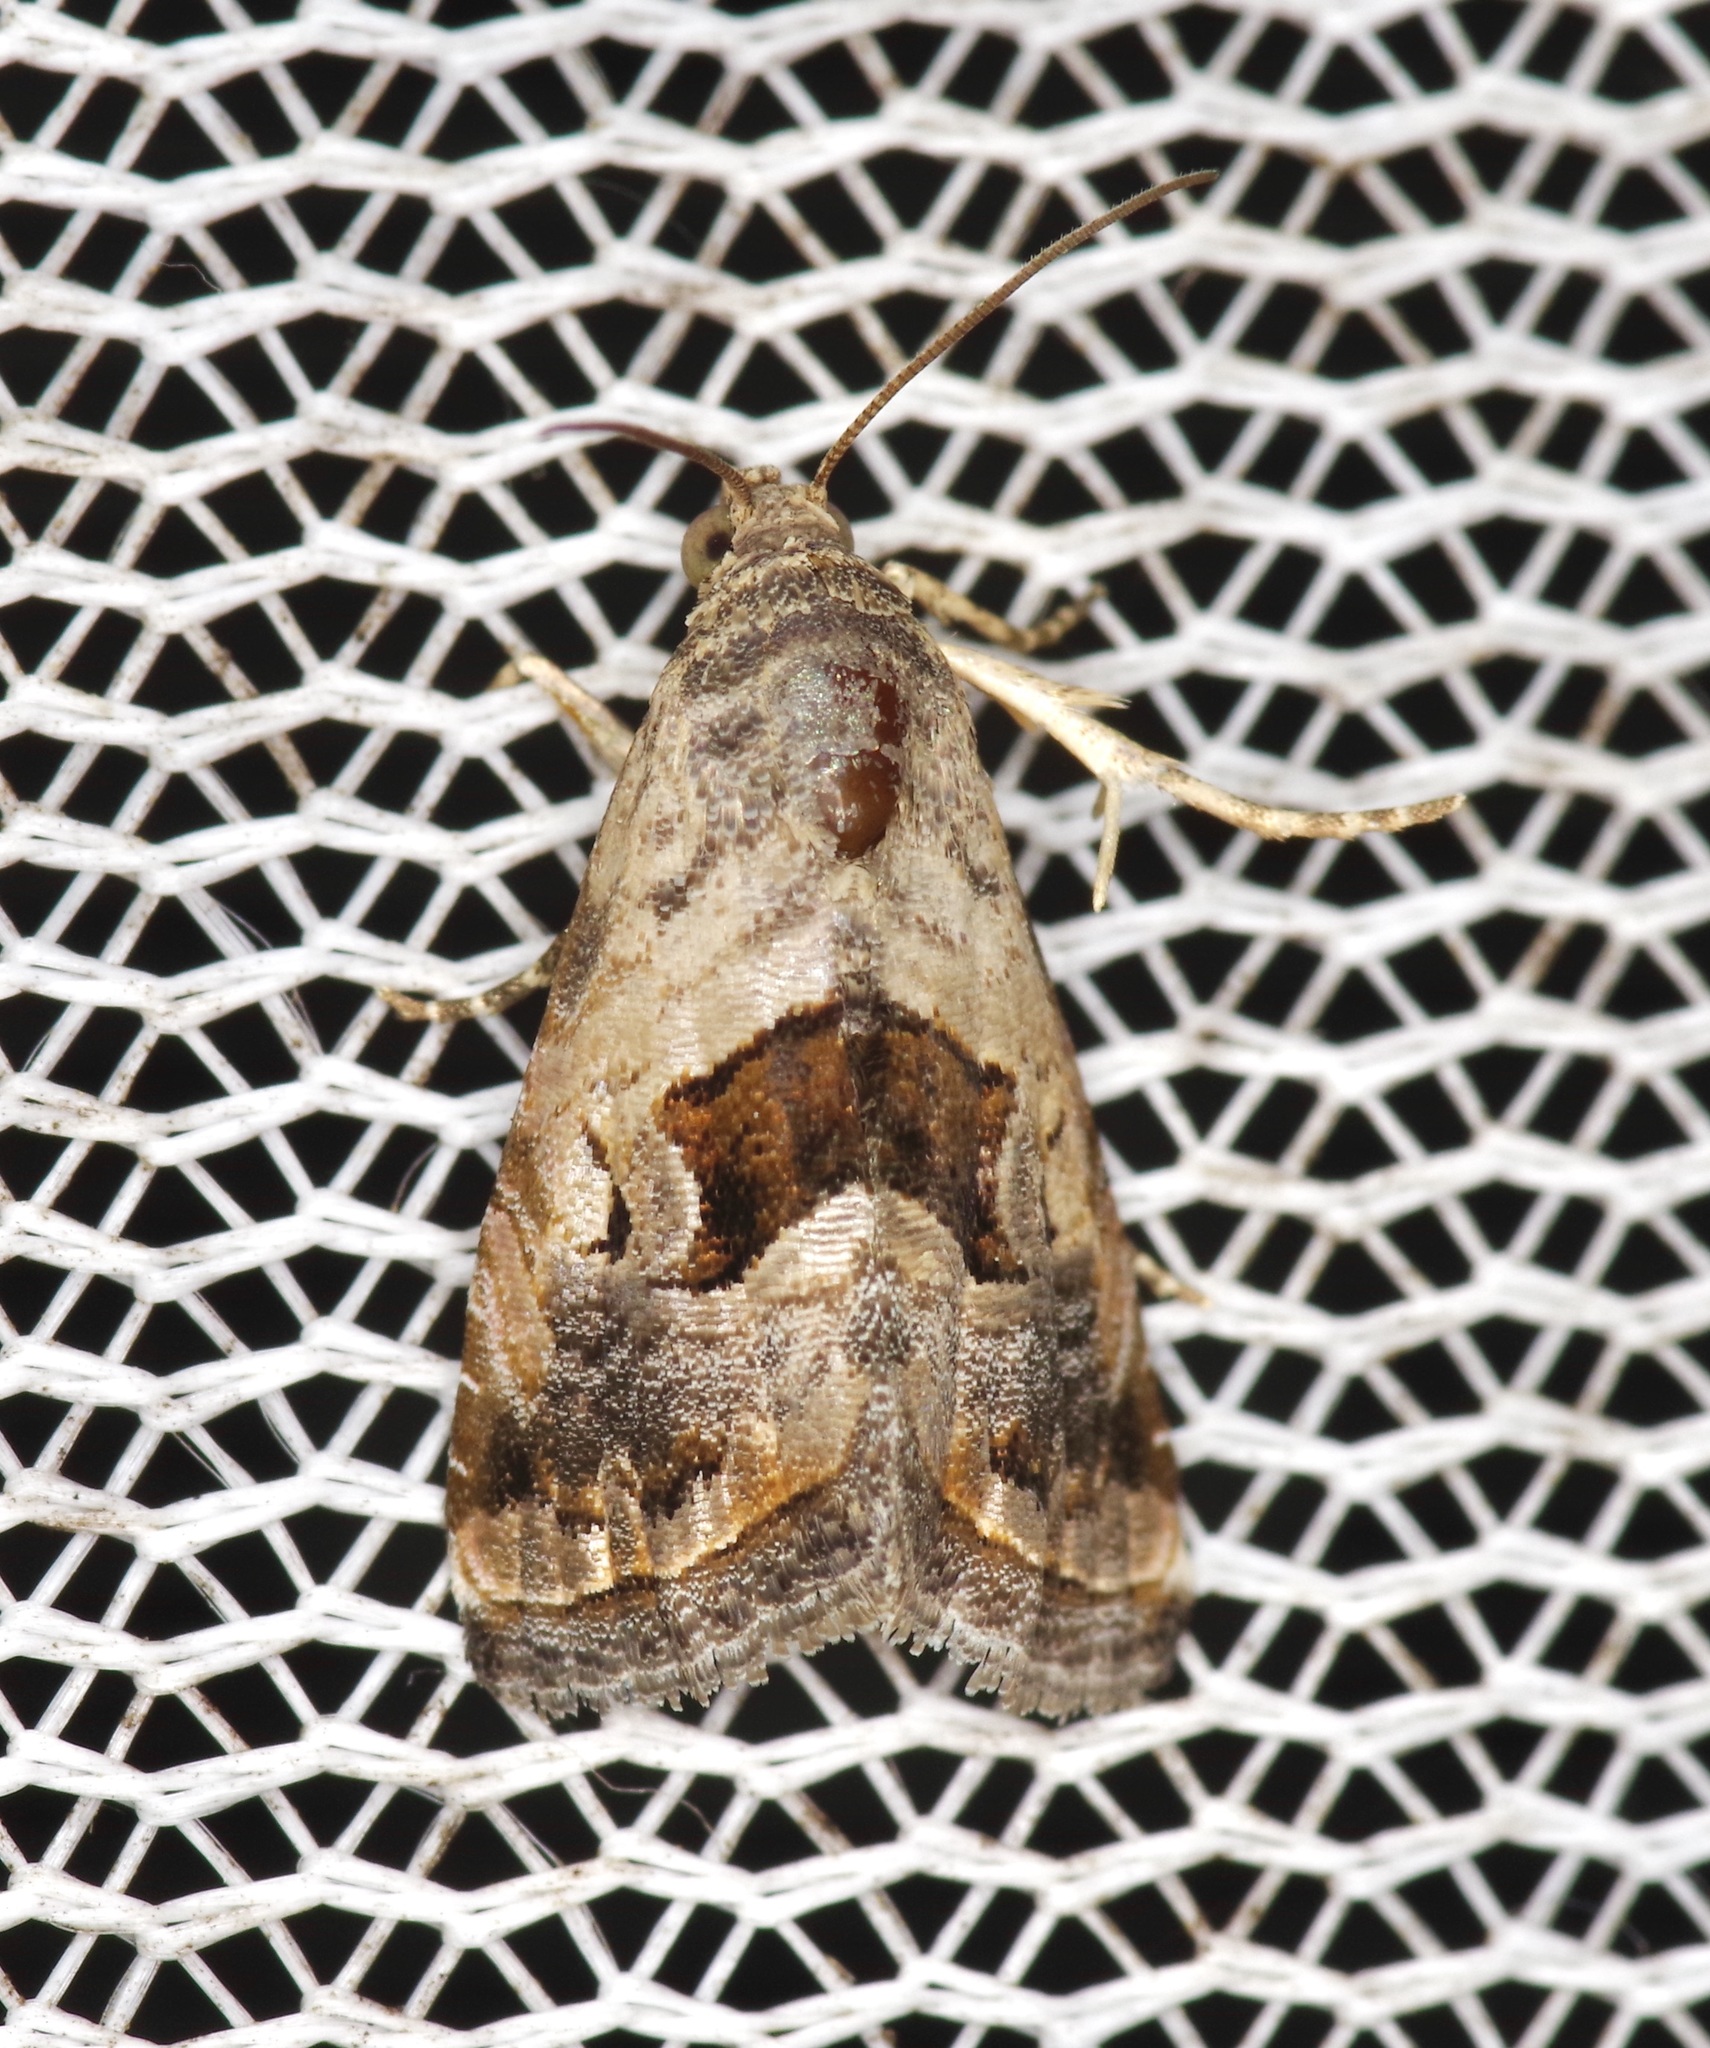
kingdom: Animalia
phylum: Arthropoda
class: Insecta
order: Lepidoptera
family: Noctuidae
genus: Tripudia
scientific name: Tripudia quadrifera
